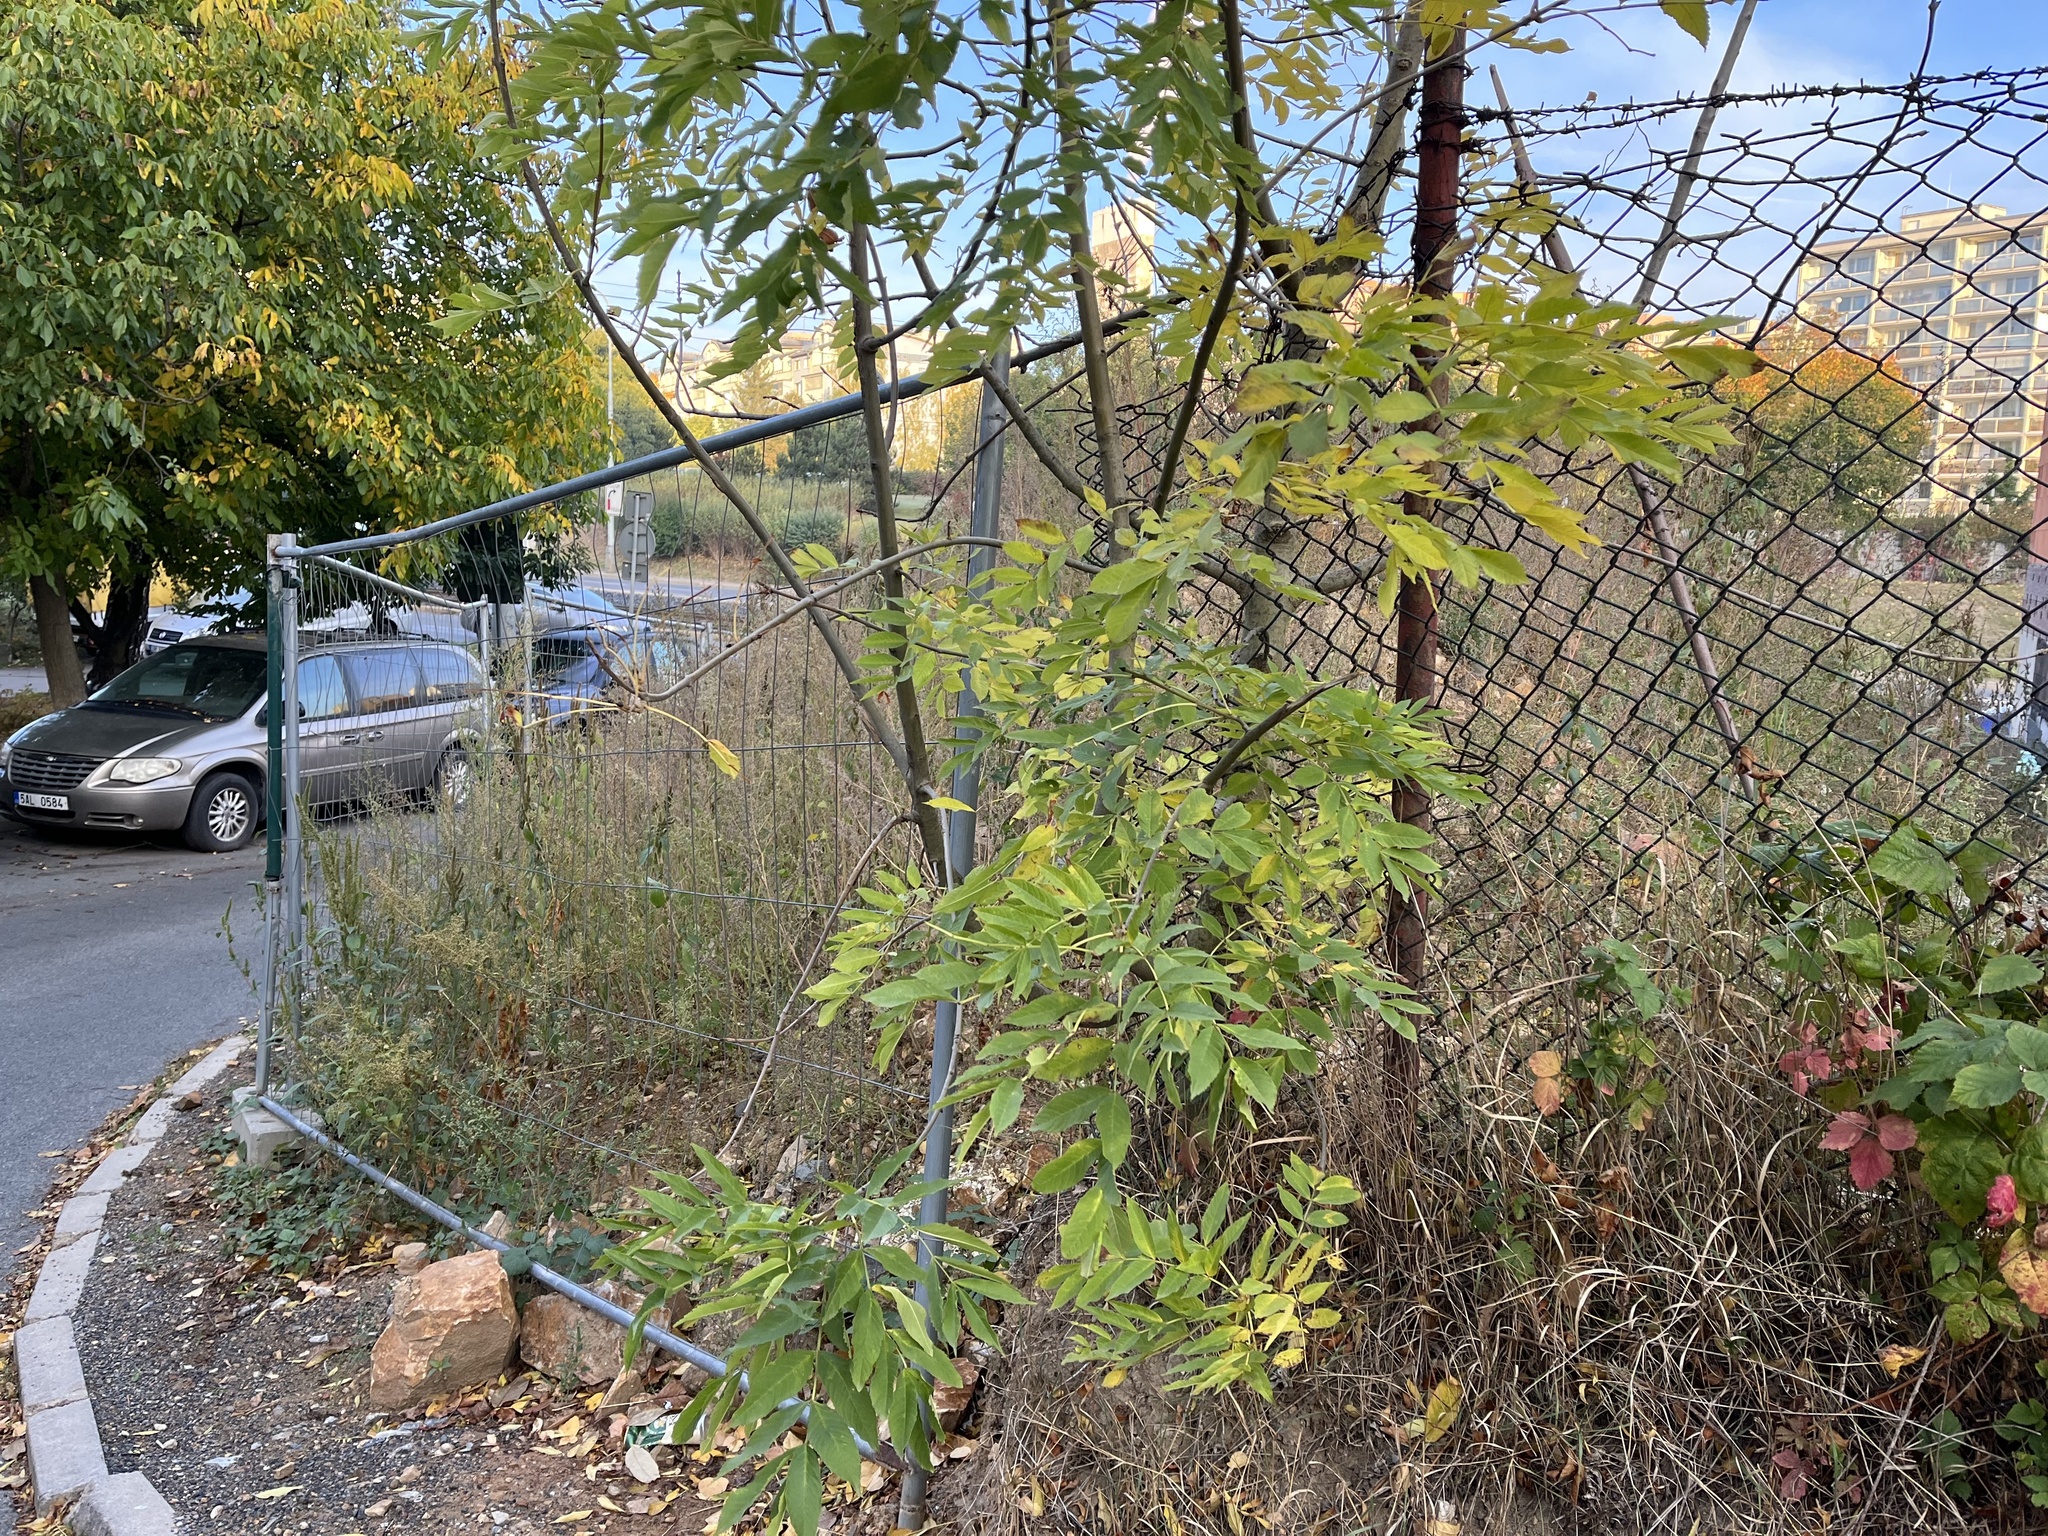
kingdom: Plantae
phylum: Tracheophyta
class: Magnoliopsida
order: Lamiales
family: Oleaceae
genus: Fraxinus
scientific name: Fraxinus excelsior
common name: European ash
